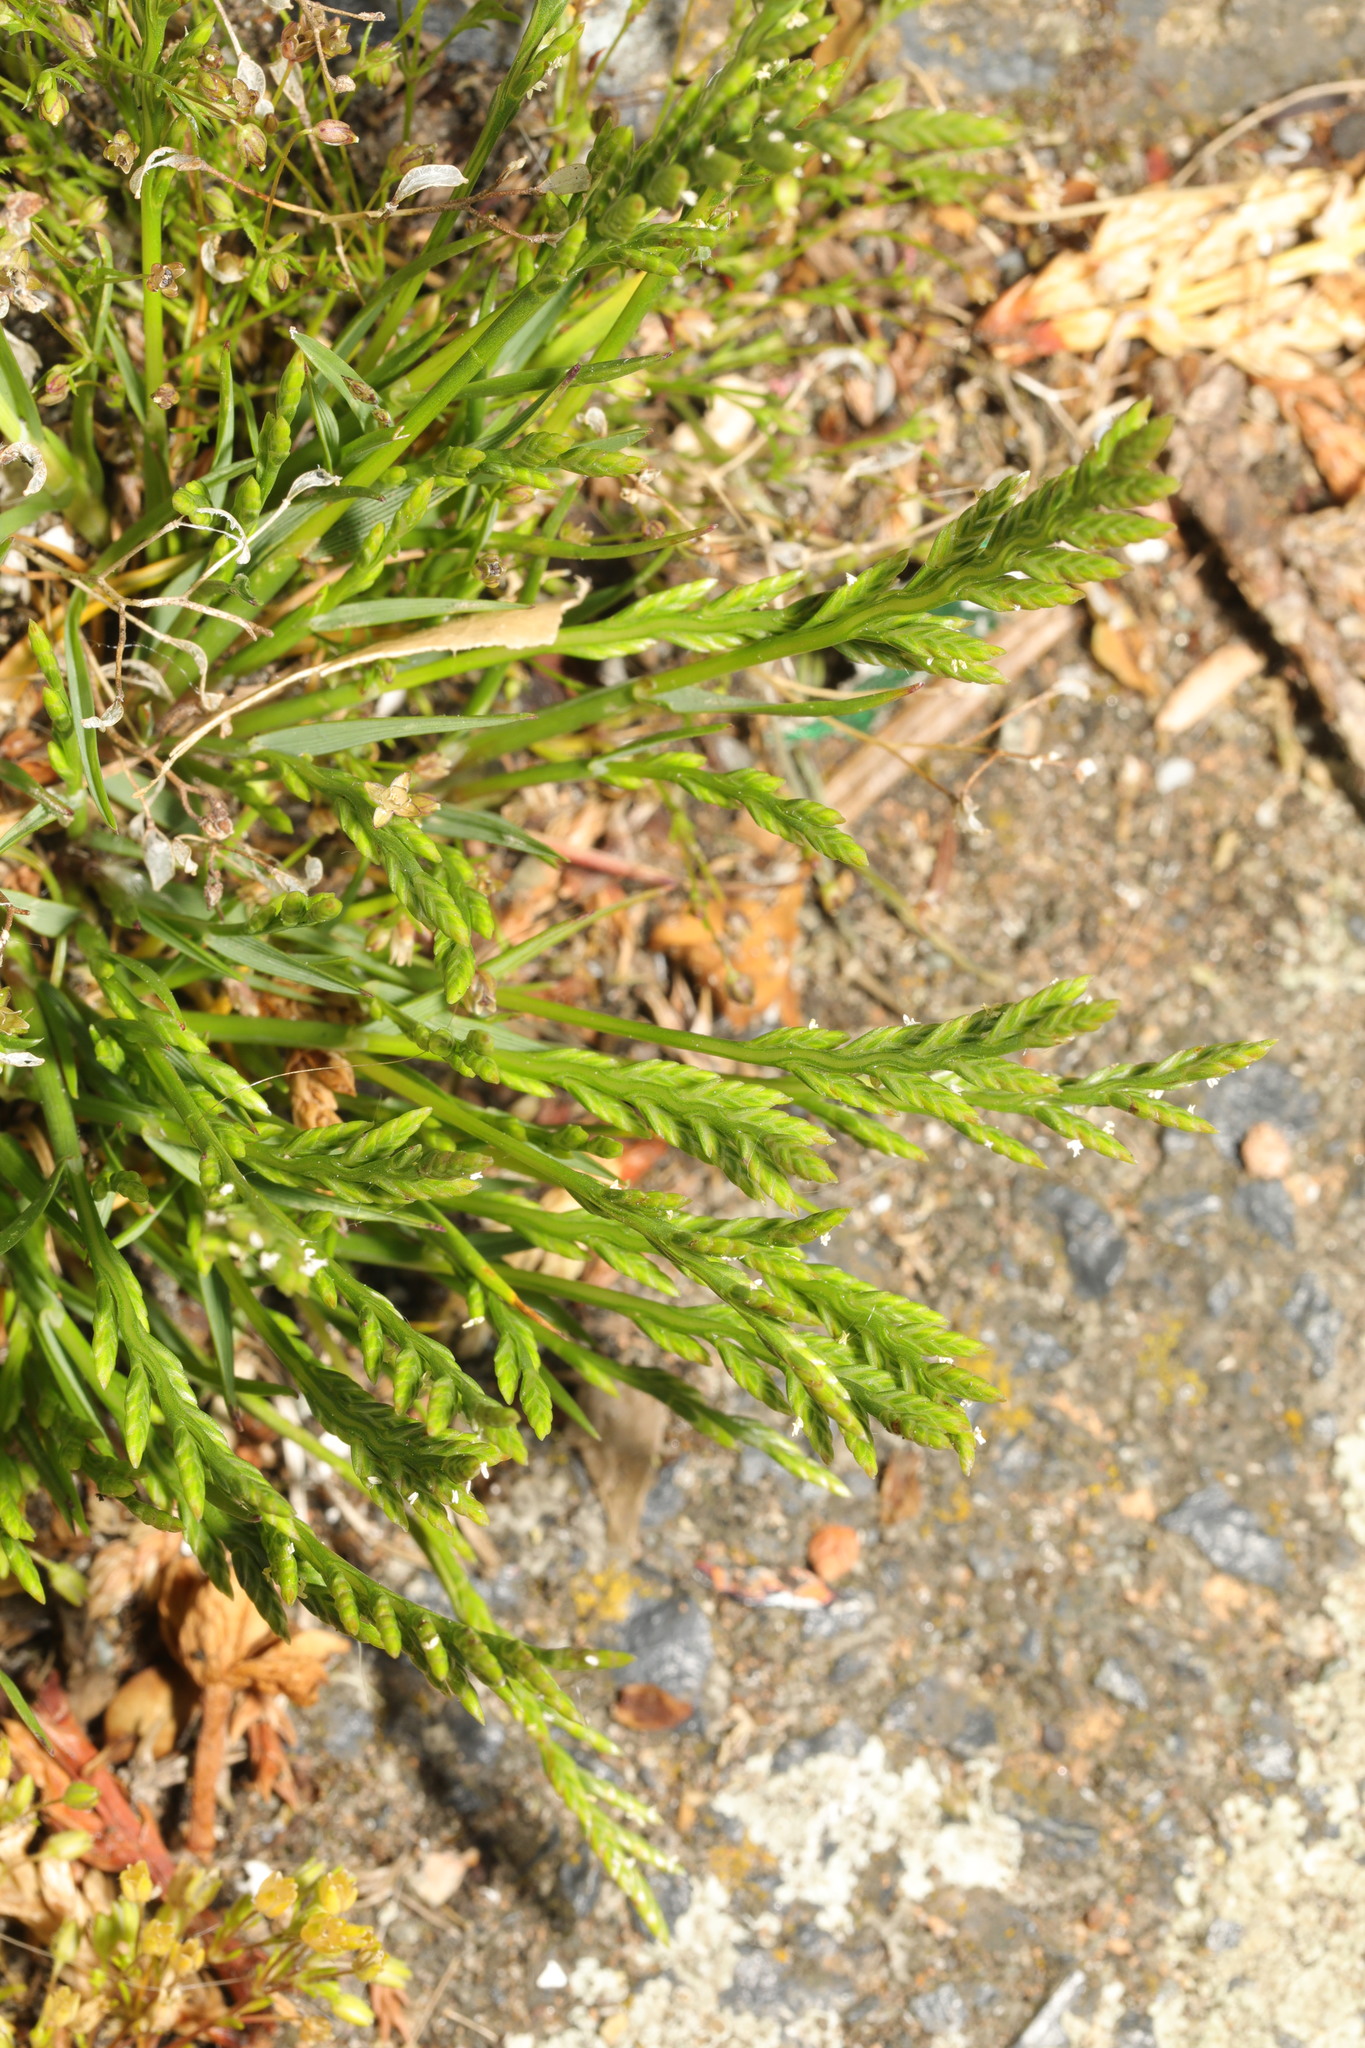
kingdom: Plantae
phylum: Tracheophyta
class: Liliopsida
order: Poales
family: Poaceae
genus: Catapodium
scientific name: Catapodium marinum
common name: Sea fern-grass
